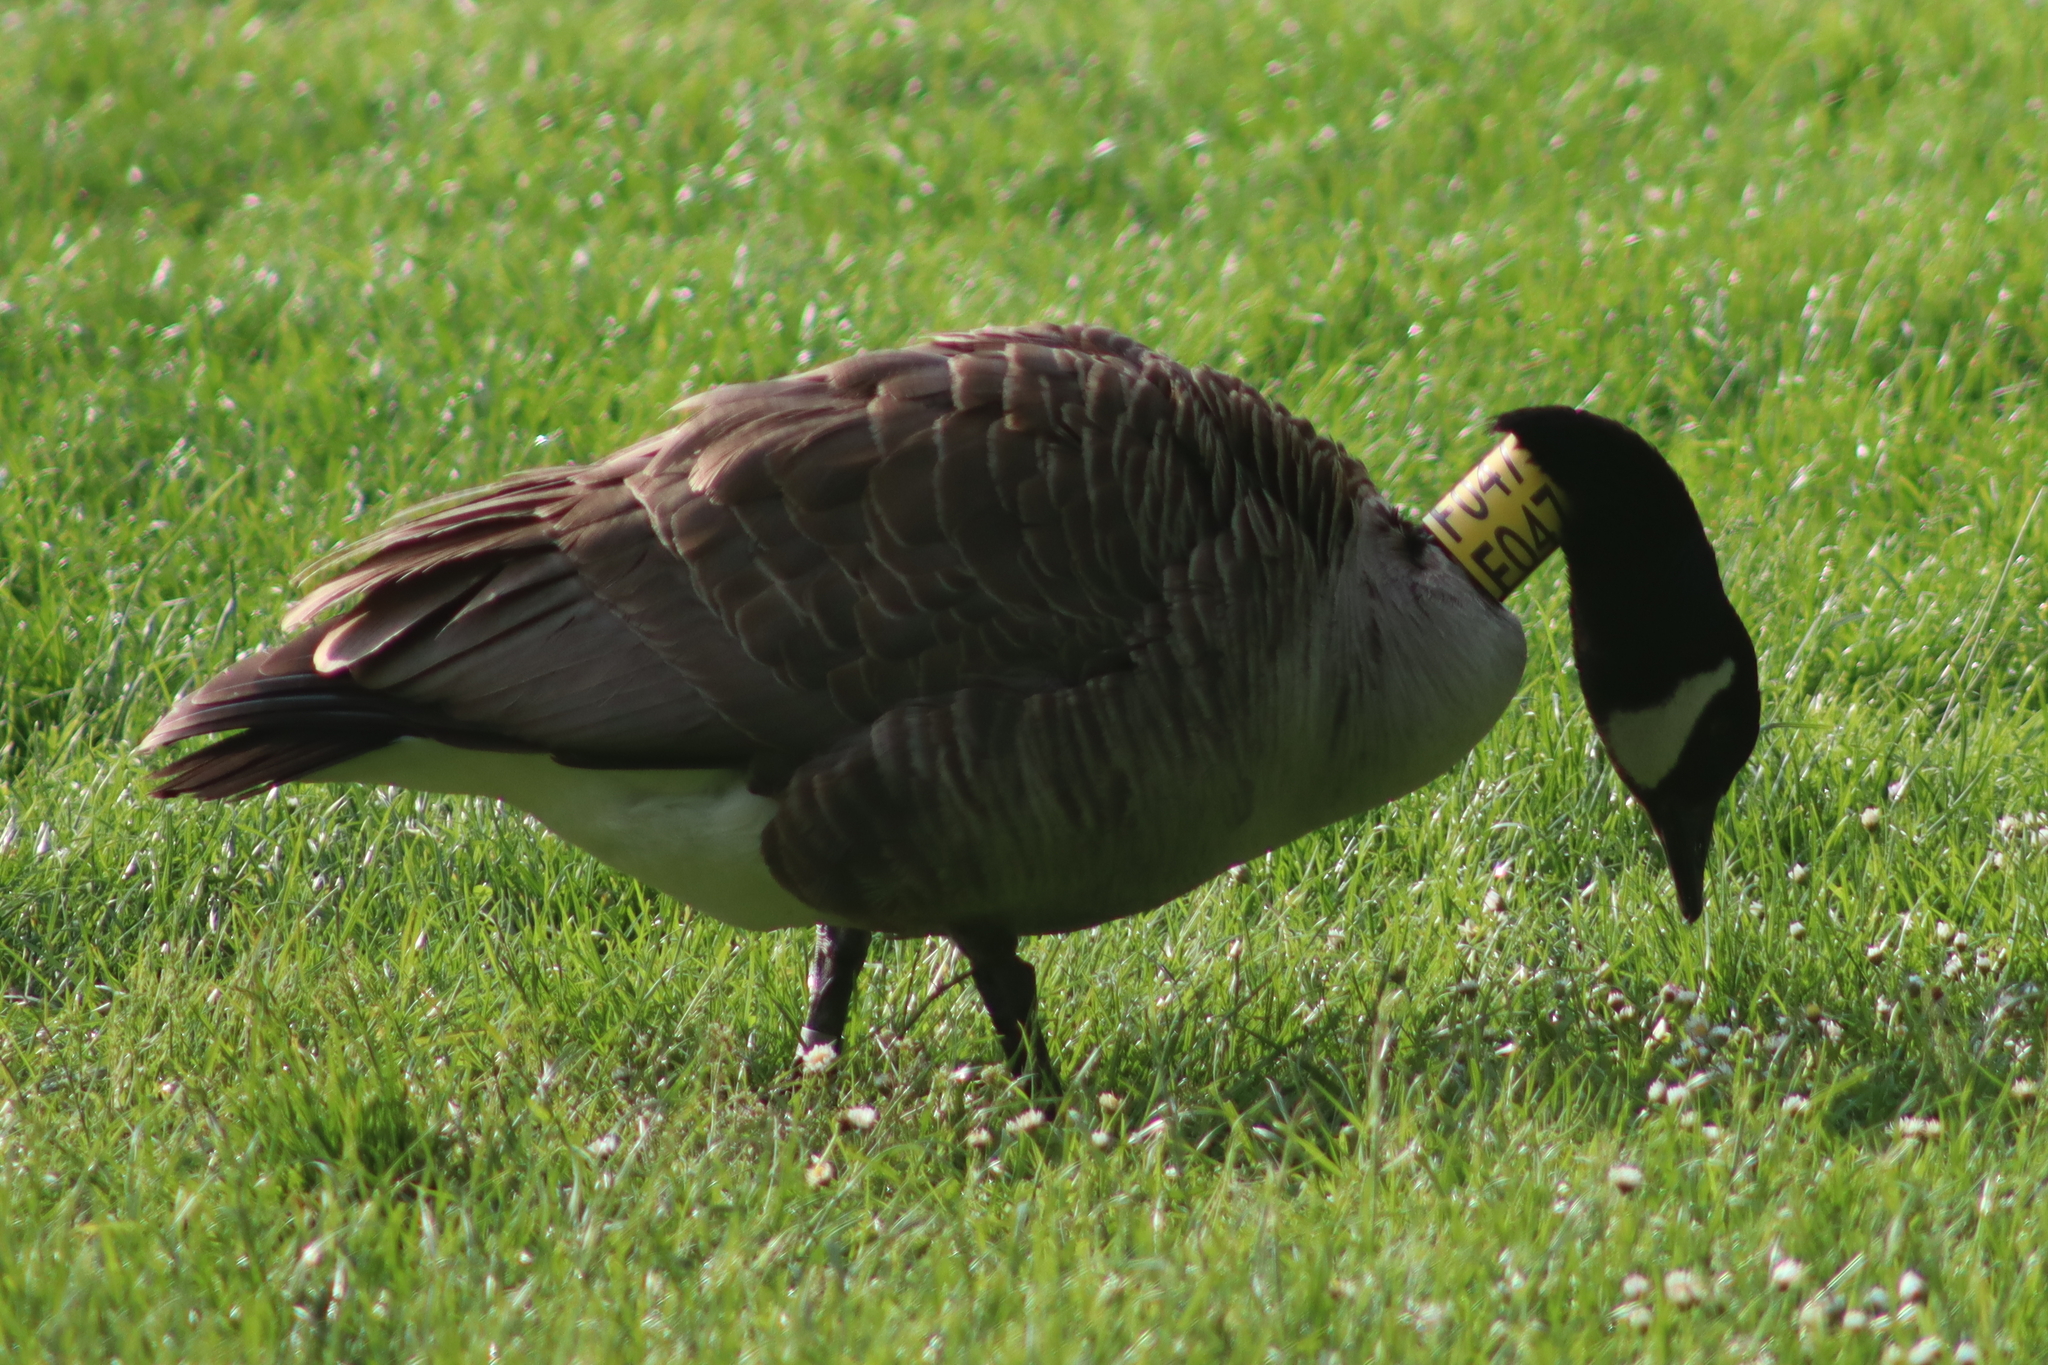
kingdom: Animalia
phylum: Chordata
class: Aves
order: Anseriformes
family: Anatidae
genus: Branta
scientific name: Branta canadensis
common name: Canada goose
